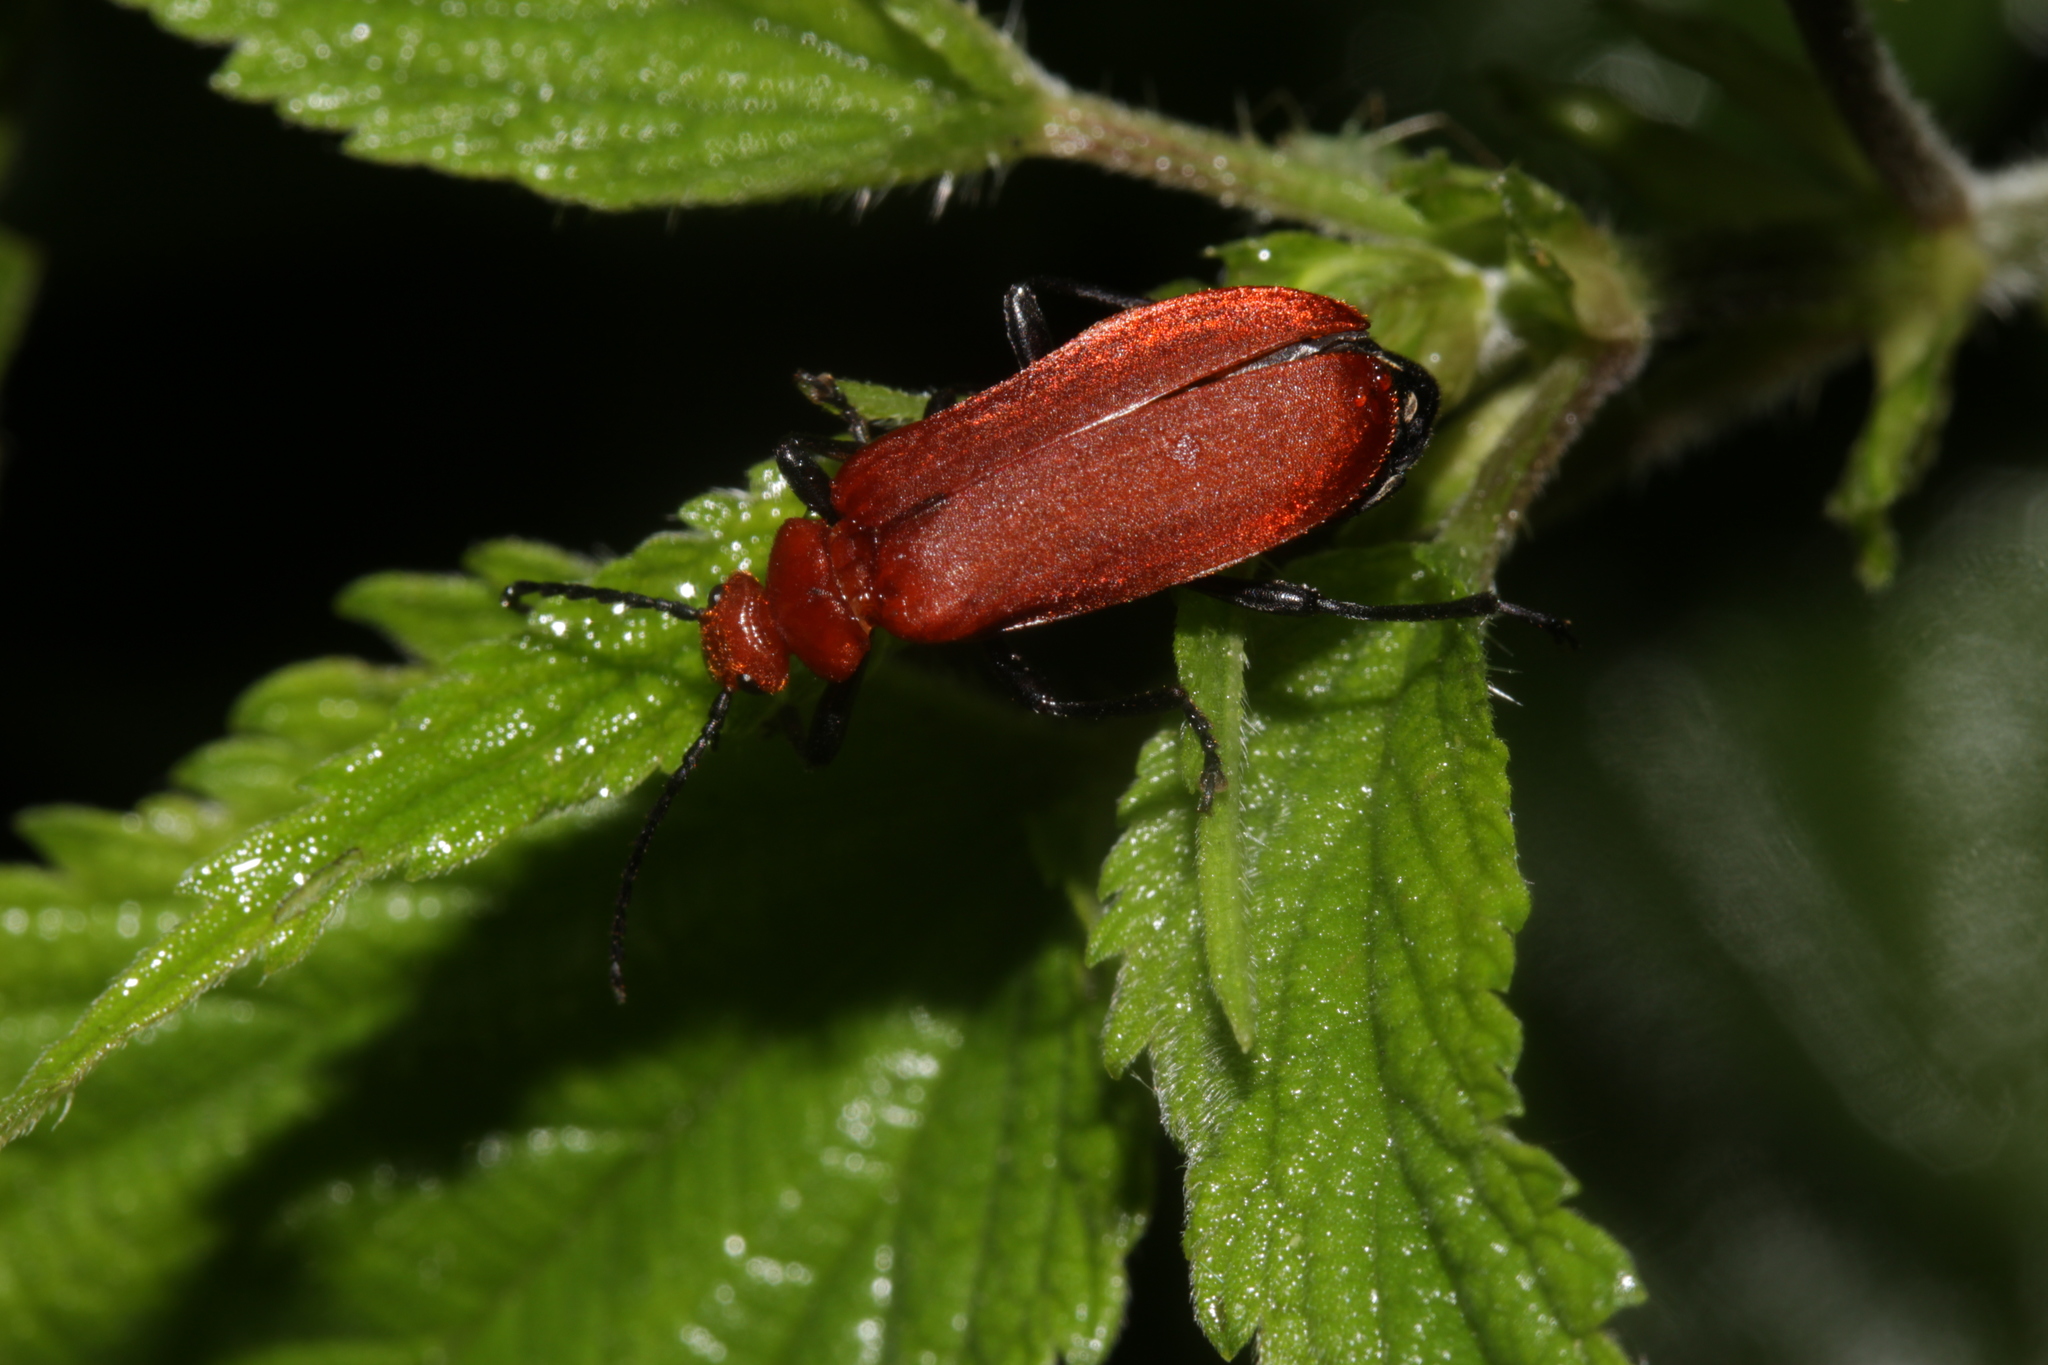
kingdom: Animalia
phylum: Arthropoda
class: Insecta
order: Coleoptera
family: Pyrochroidae
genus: Pyrochroa
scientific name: Pyrochroa serraticornis
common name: Red-headed cardinal beetle
